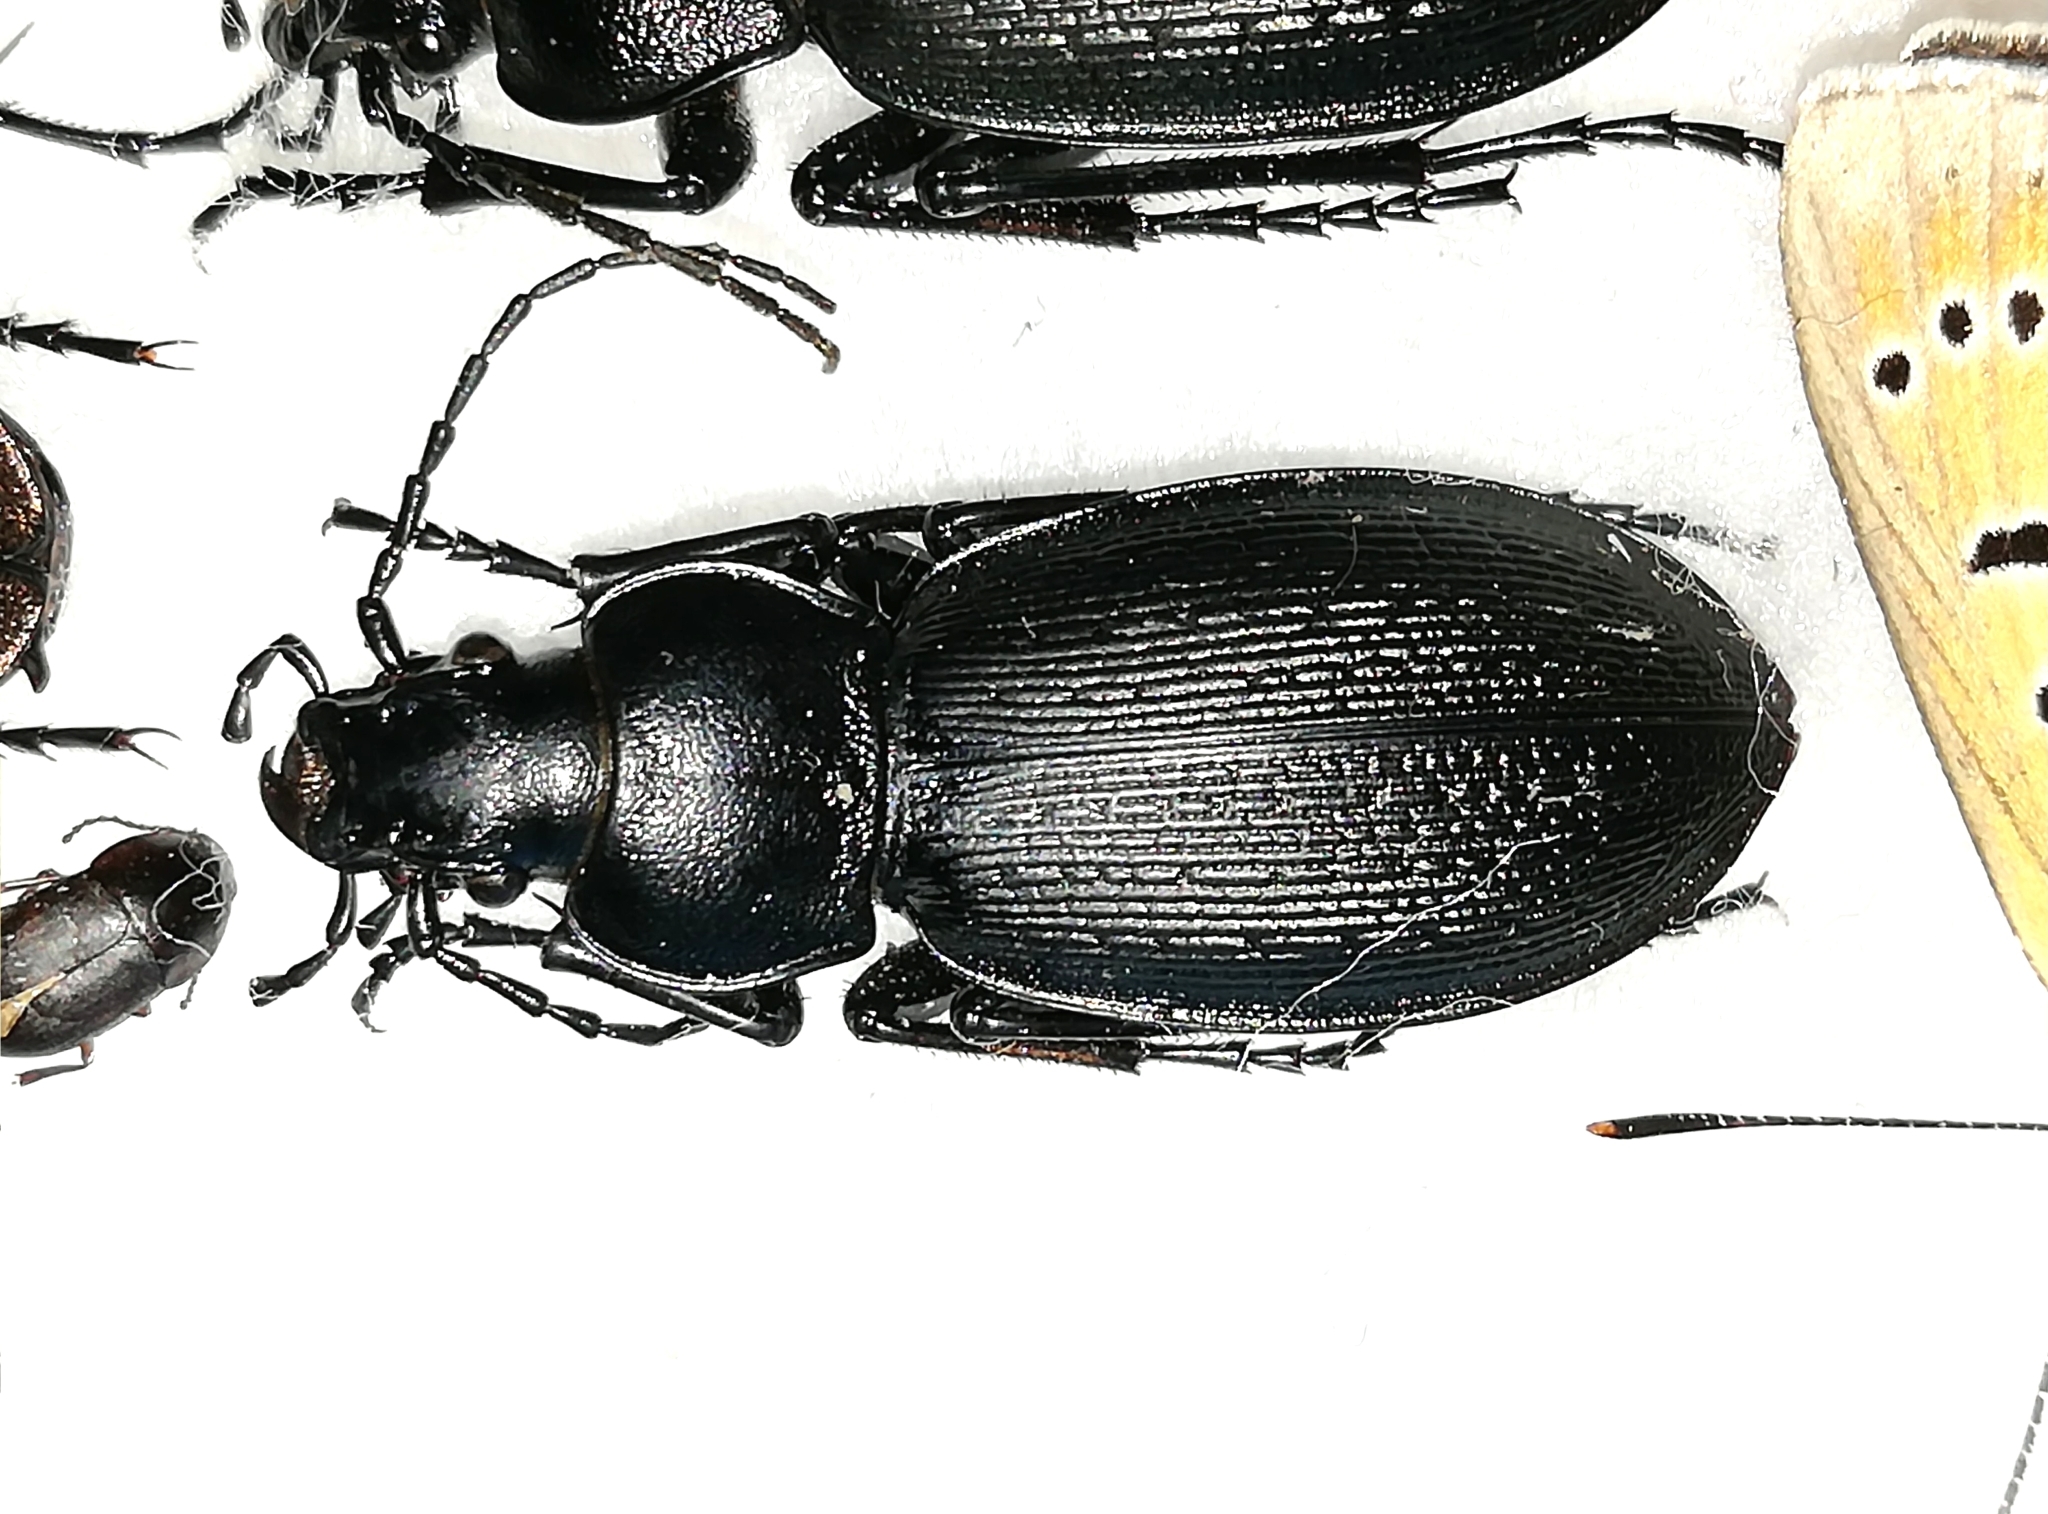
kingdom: Animalia
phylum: Arthropoda
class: Insecta
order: Coleoptera
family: Carabidae
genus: Carabus
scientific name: Carabus spasskianus
